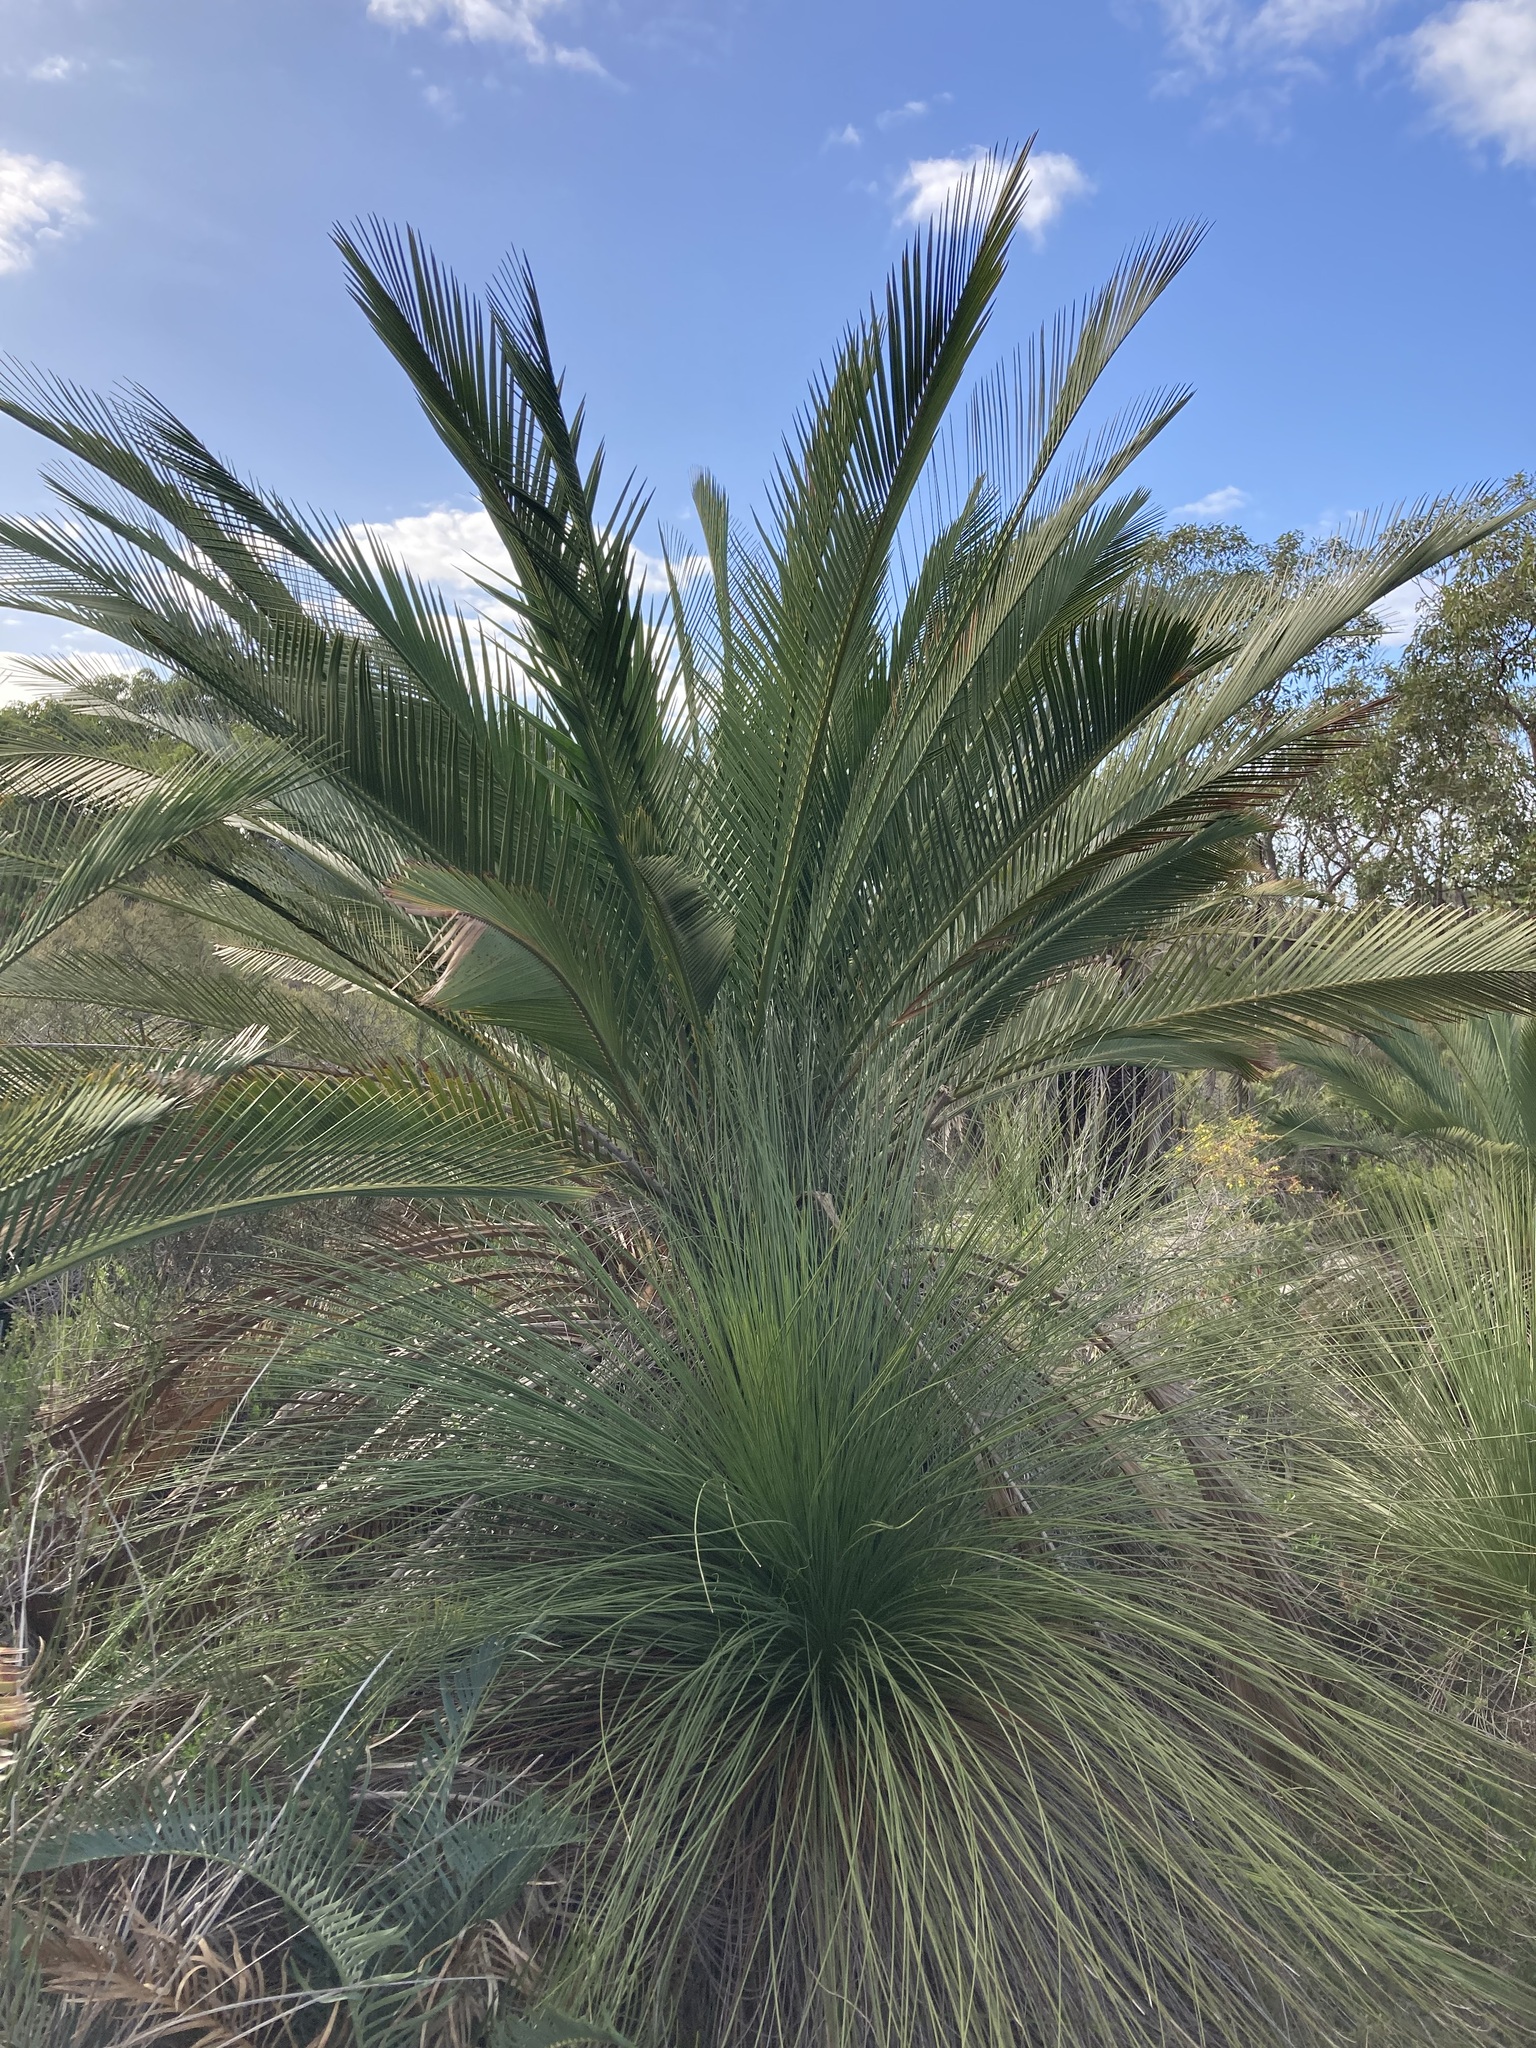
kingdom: Plantae
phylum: Tracheophyta
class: Cycadopsida
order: Cycadales
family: Zamiaceae
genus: Macrozamia
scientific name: Macrozamia fraseri
